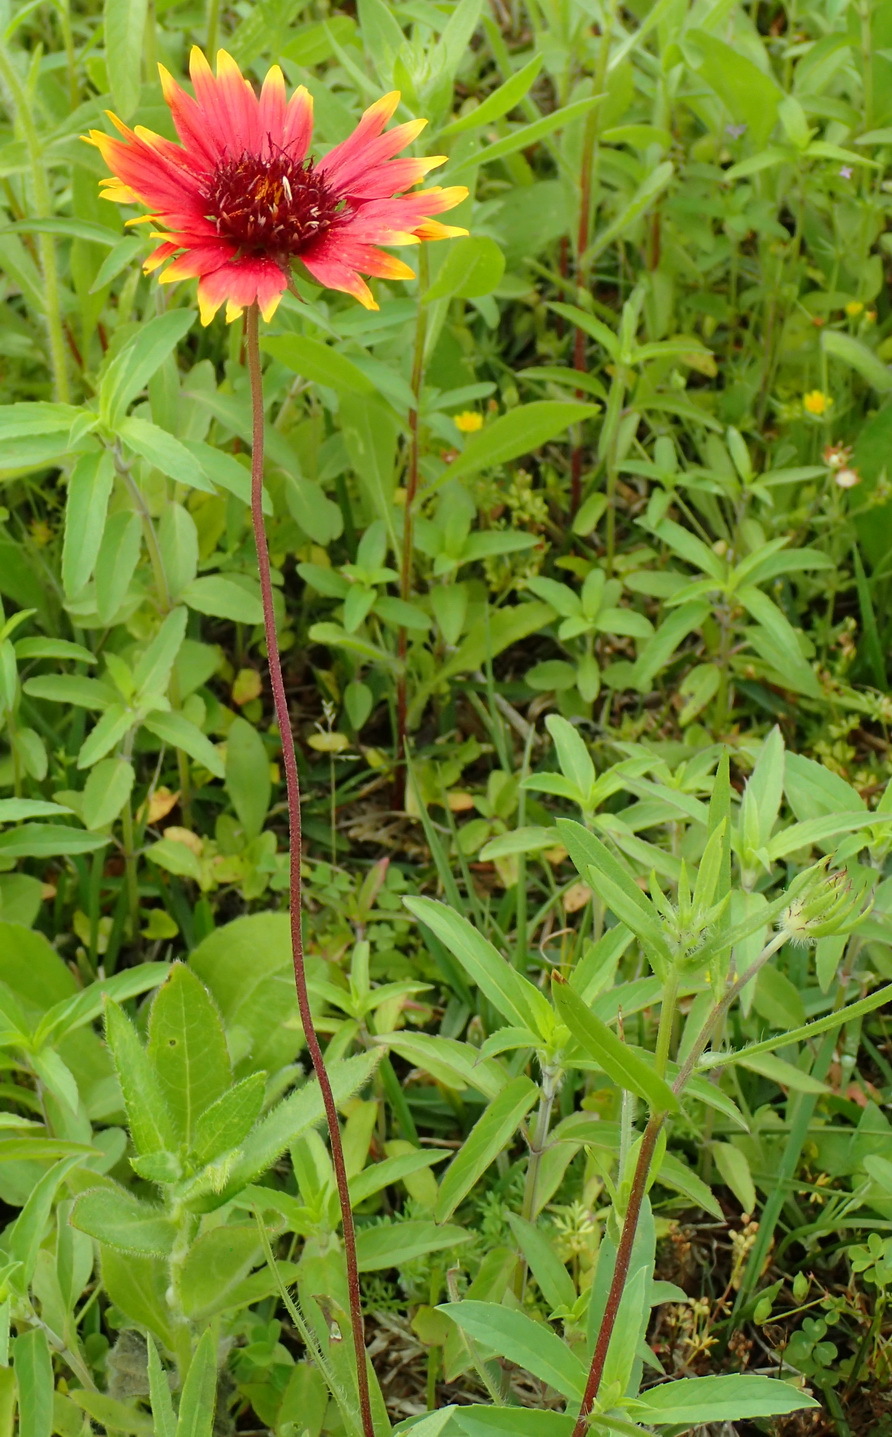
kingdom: Plantae
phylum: Tracheophyta
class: Magnoliopsida
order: Asterales
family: Asteraceae
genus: Gaillardia
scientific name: Gaillardia pulchella
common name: Firewheel
